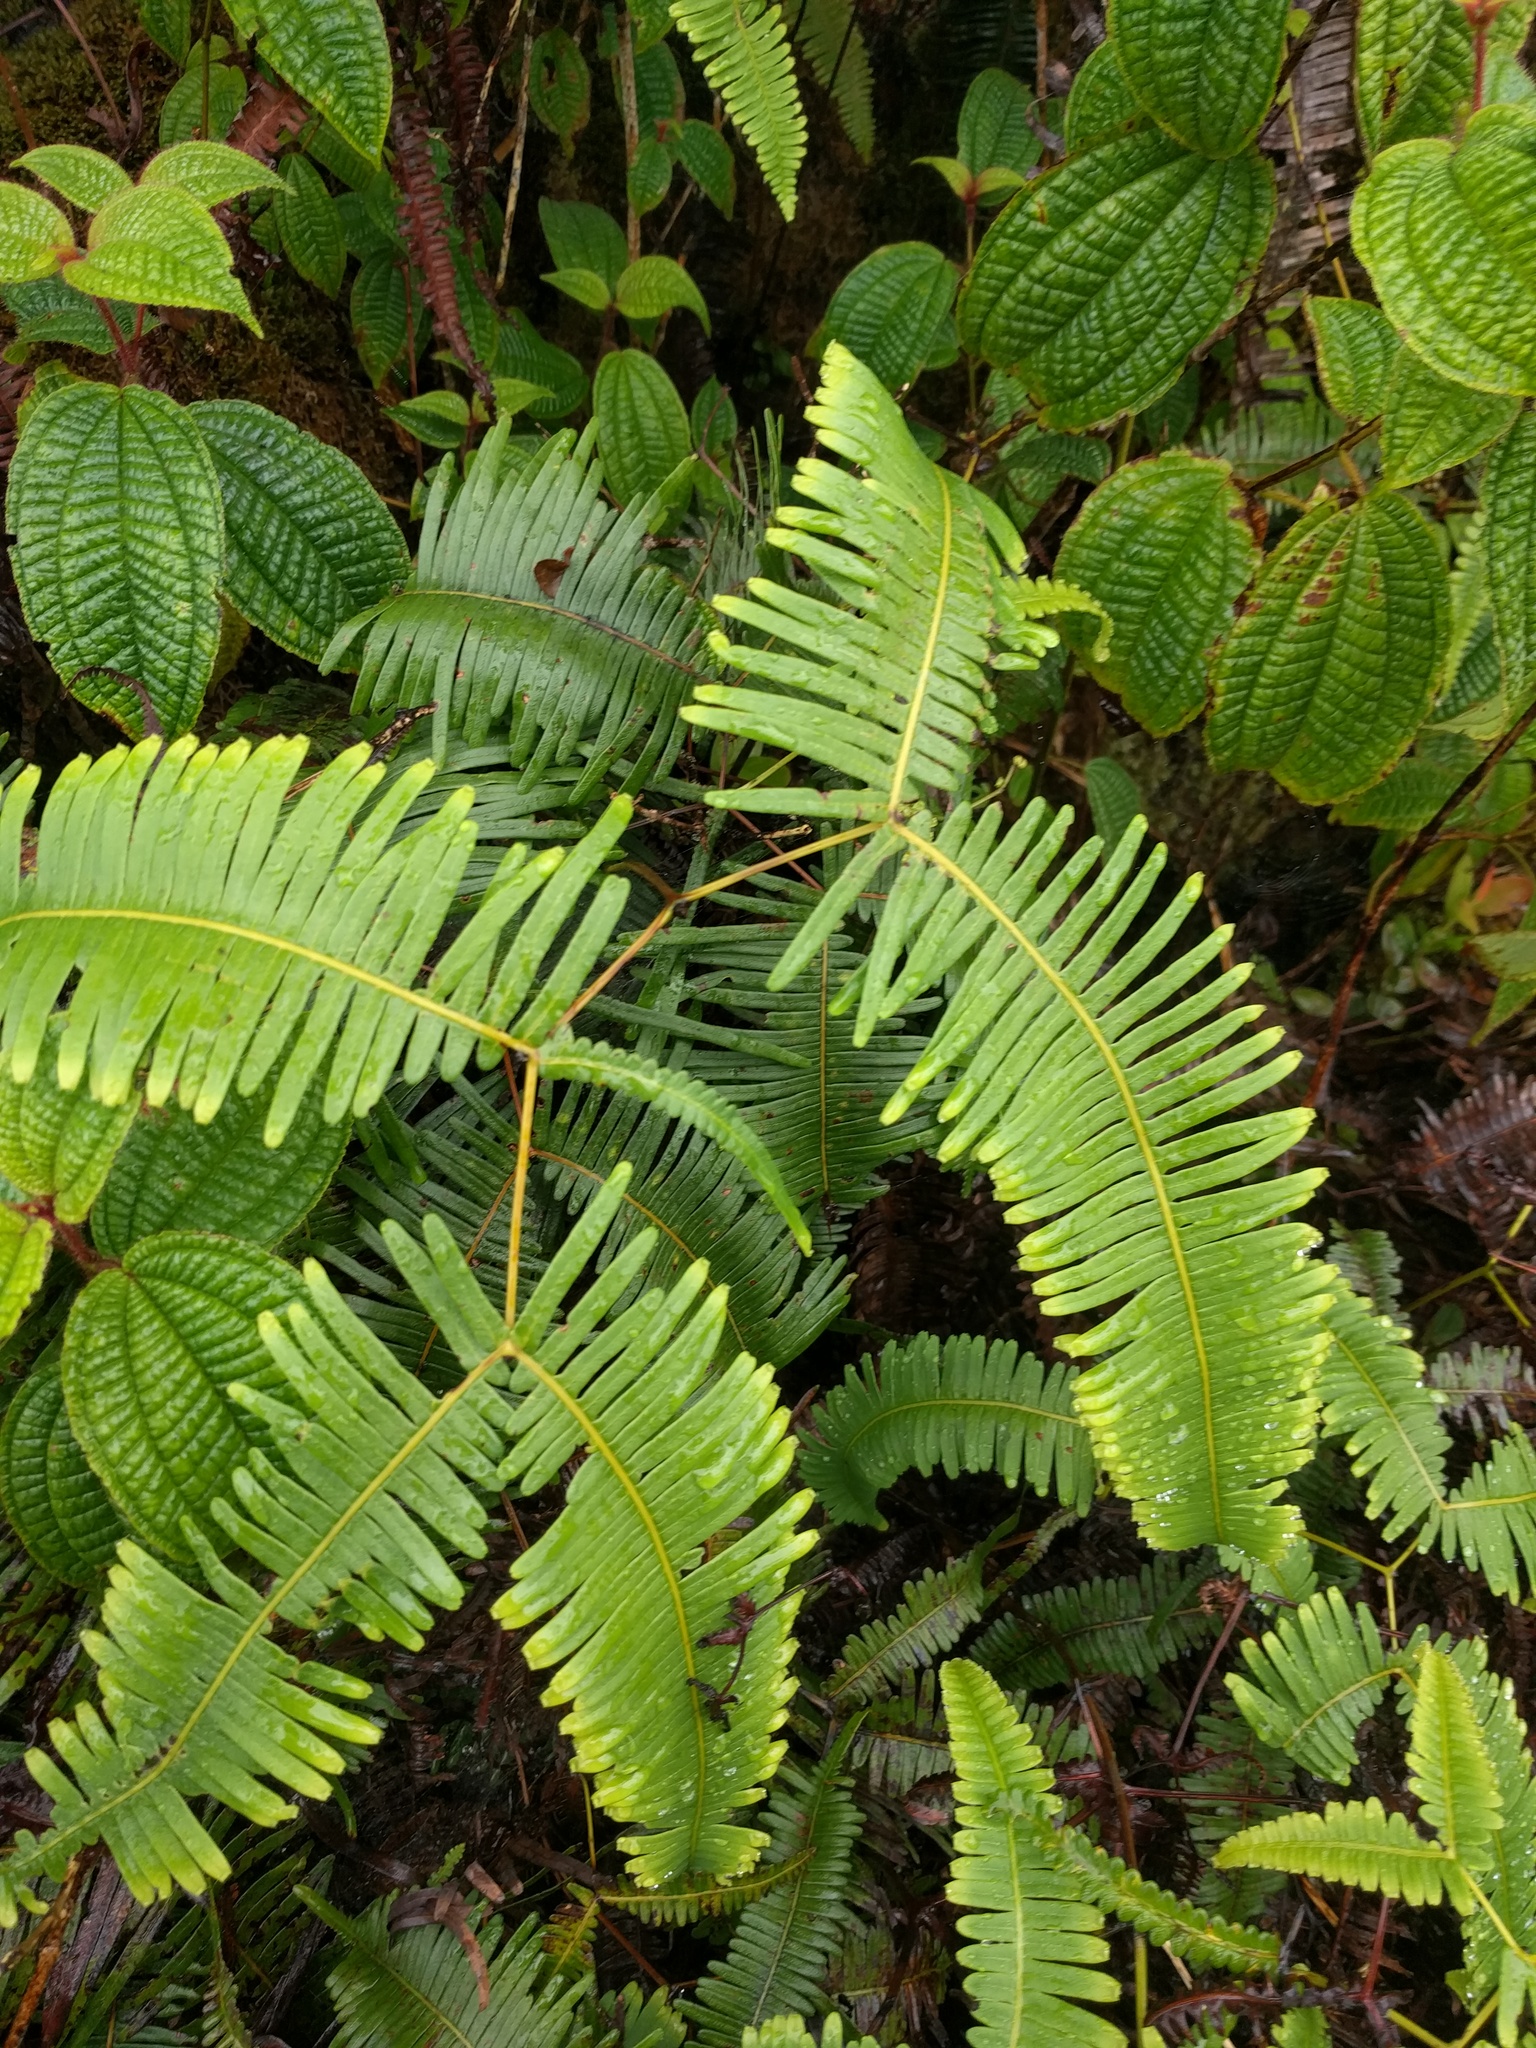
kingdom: Plantae
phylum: Tracheophyta
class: Polypodiopsida
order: Gleicheniales
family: Gleicheniaceae
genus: Dicranopteris
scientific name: Dicranopteris linearis
